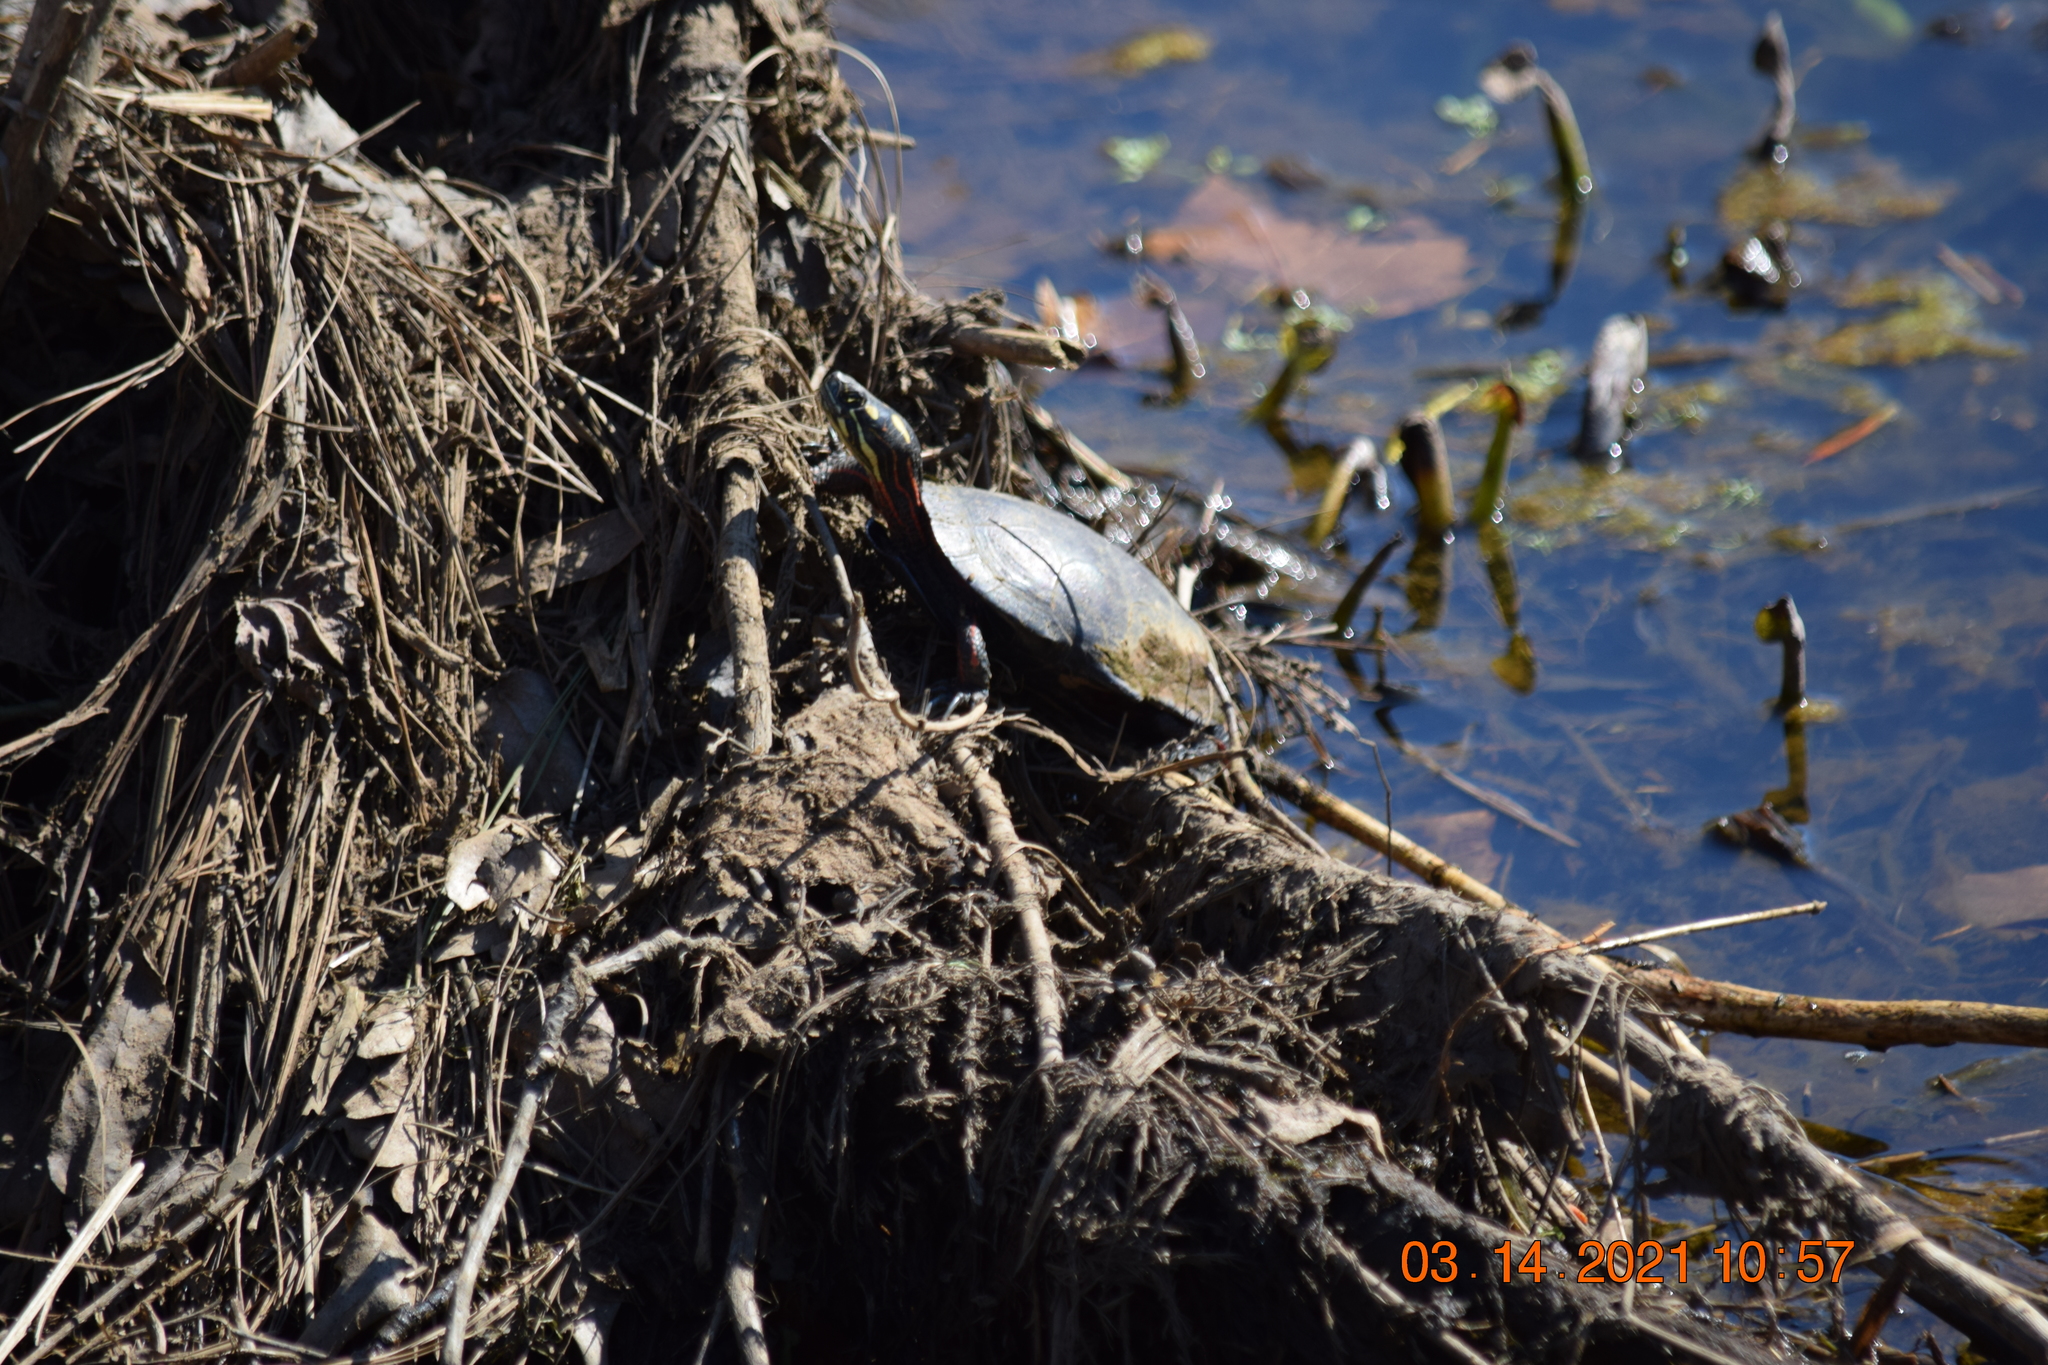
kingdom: Animalia
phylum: Chordata
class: Testudines
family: Emydidae
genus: Chrysemys
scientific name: Chrysemys picta
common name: Painted turtle
